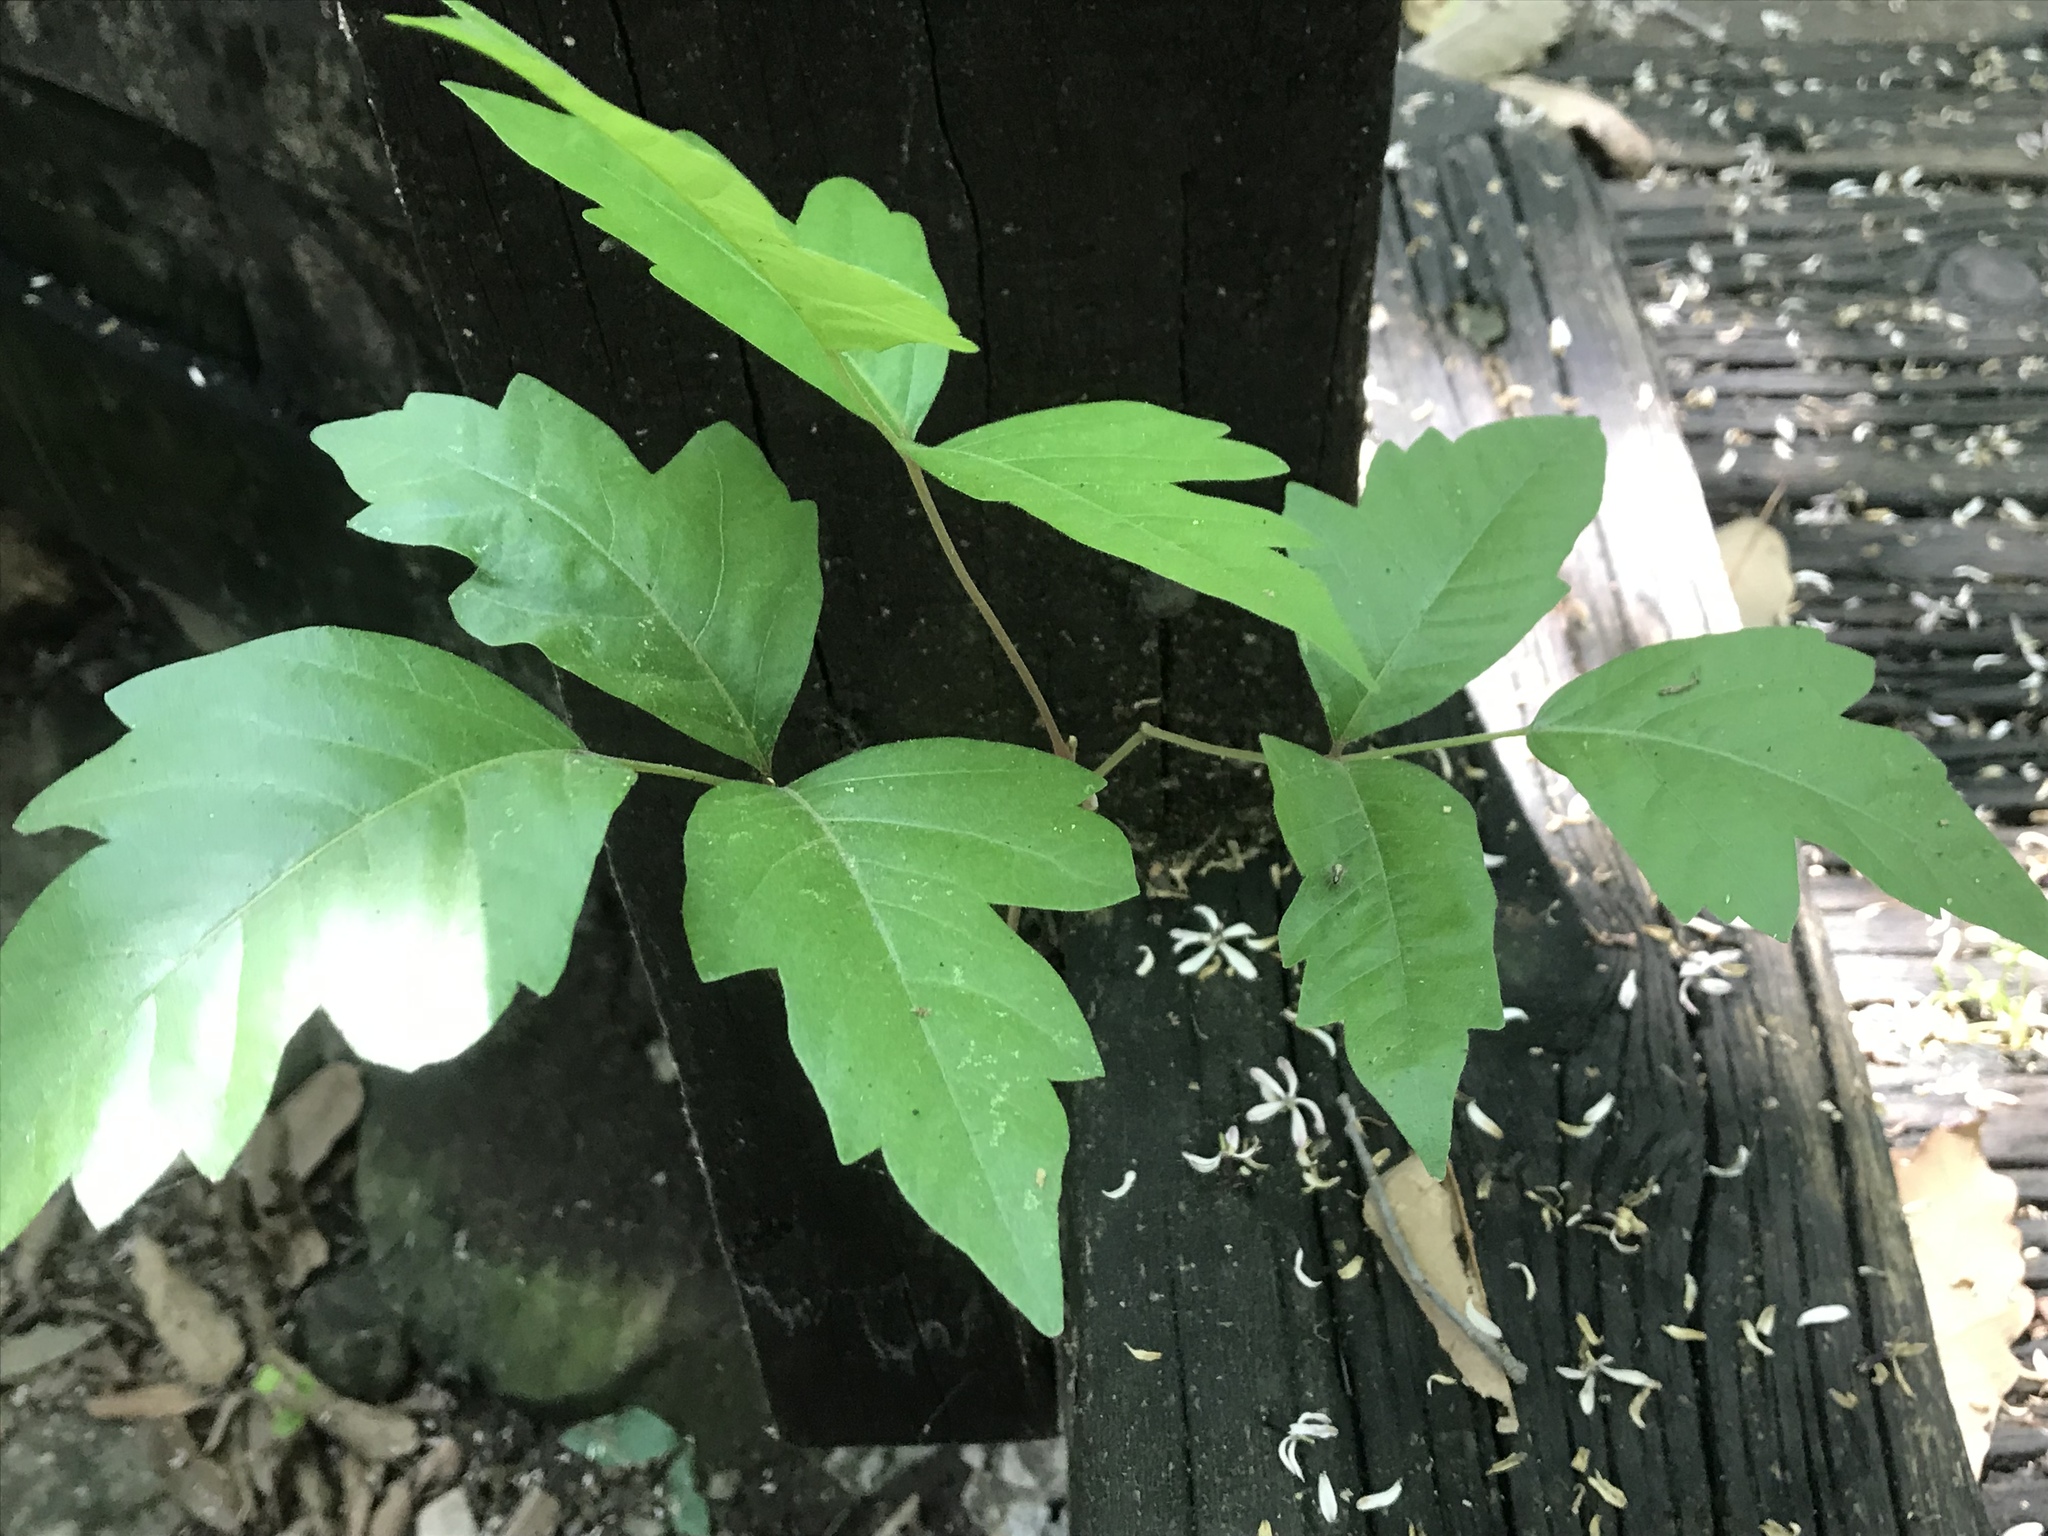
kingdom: Plantae
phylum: Tracheophyta
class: Magnoliopsida
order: Sapindales
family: Anacardiaceae
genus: Toxicodendron
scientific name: Toxicodendron radicans
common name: Poison ivy
